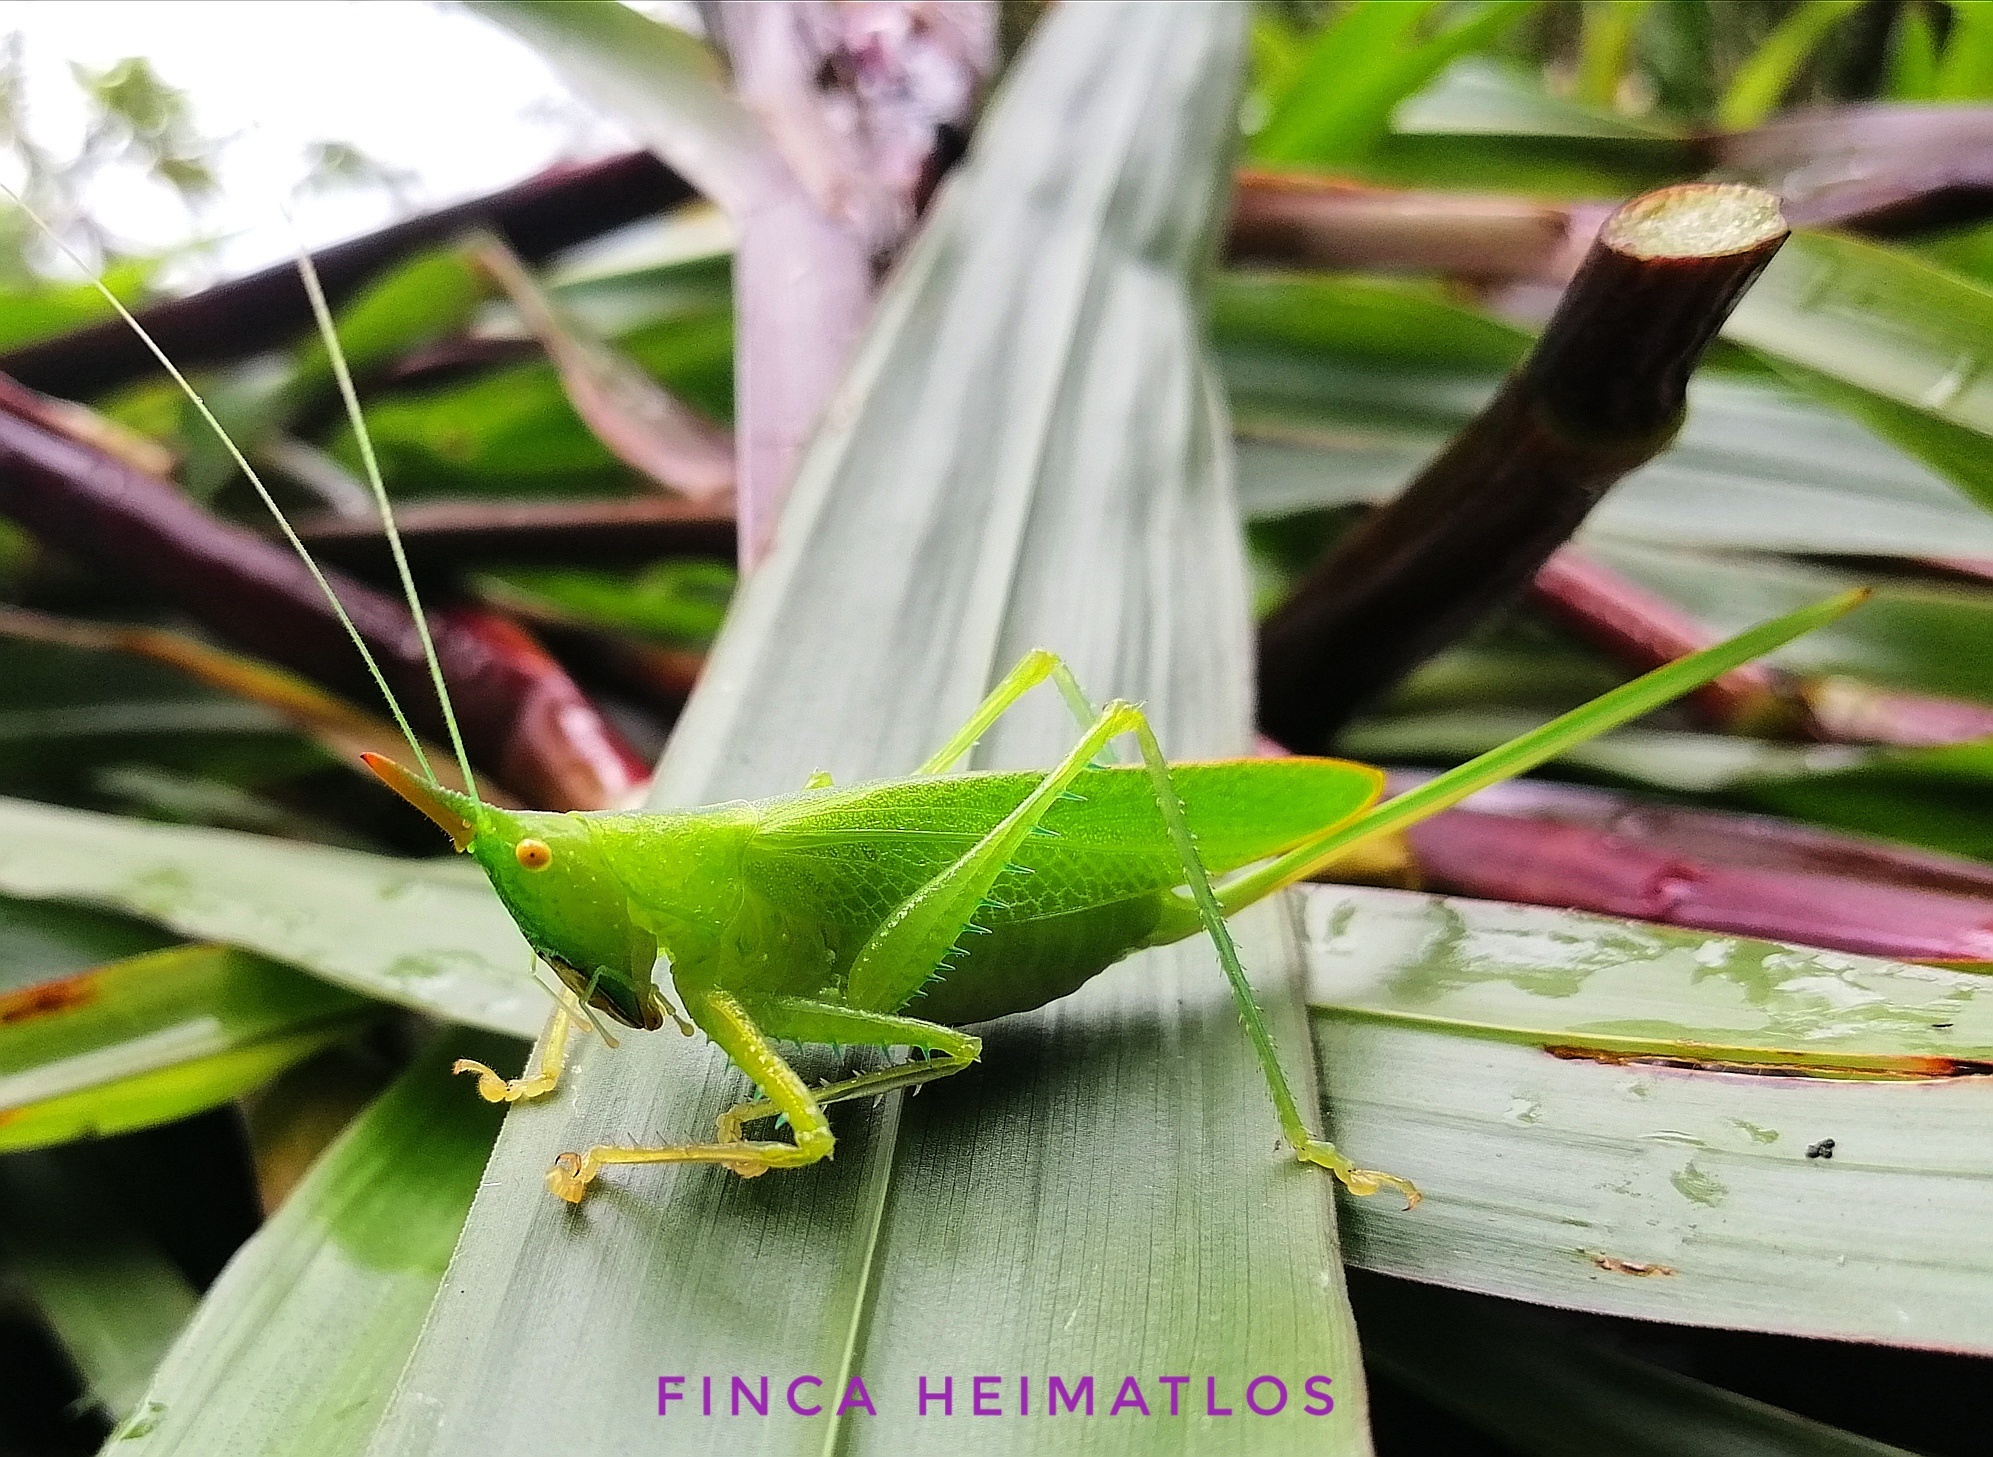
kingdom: Animalia
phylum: Arthropoda
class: Insecta
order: Orthoptera
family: Tettigoniidae
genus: Copiphora
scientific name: Copiphora longicauda
